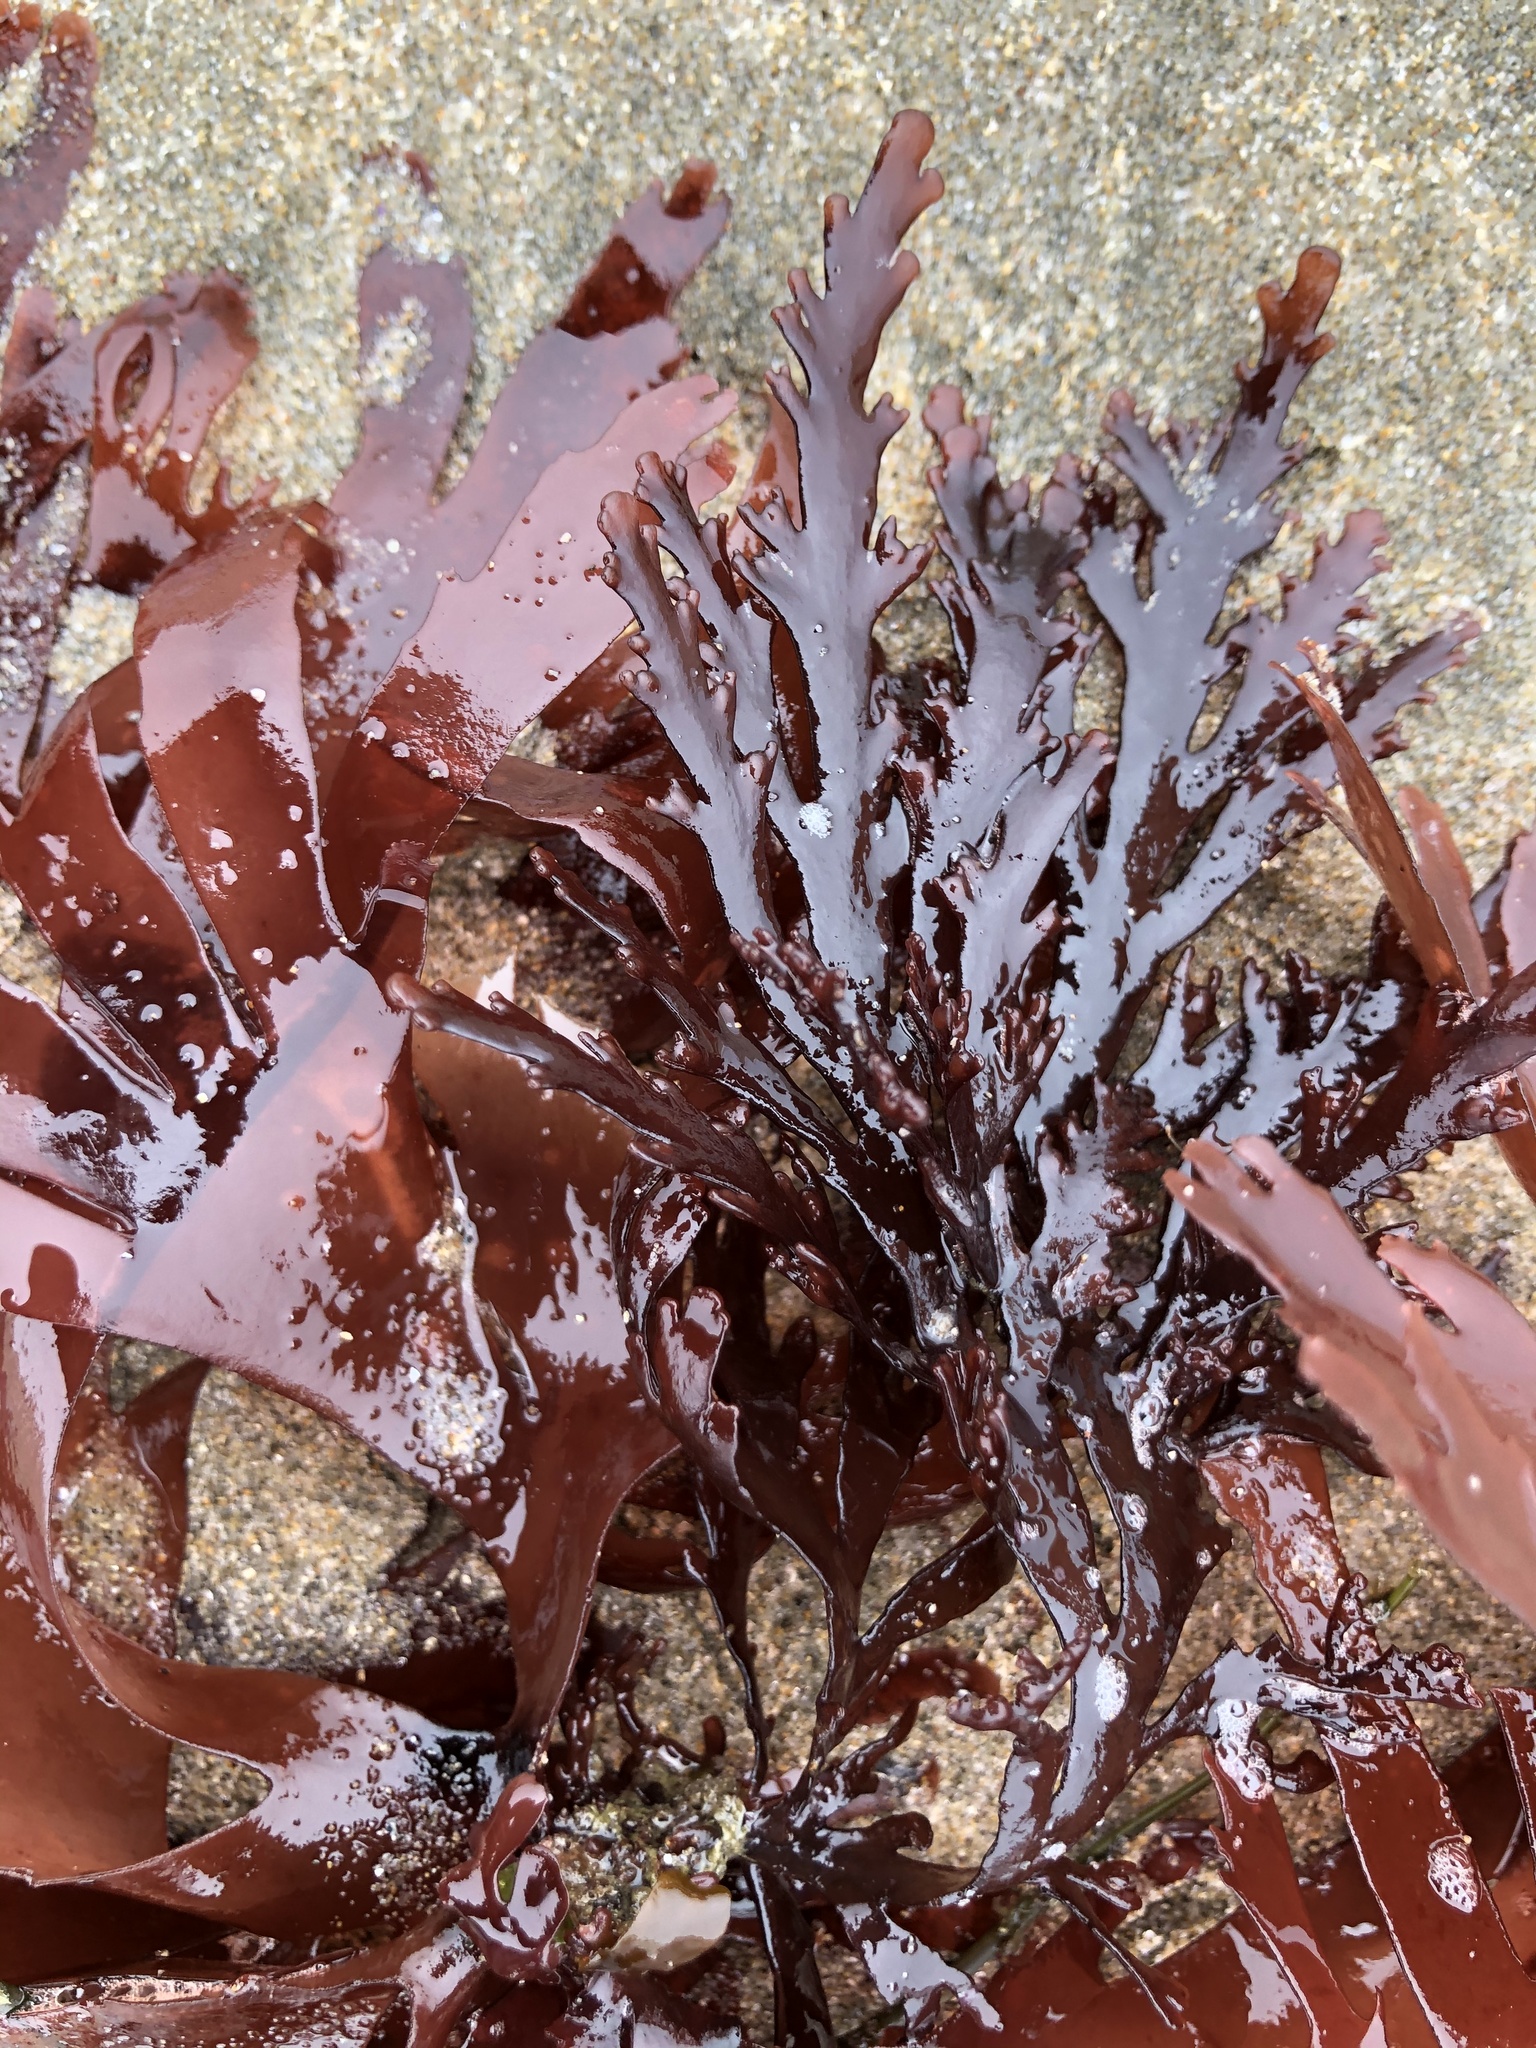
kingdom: Plantae
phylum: Rhodophyta
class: Florideophyceae
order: Ceramiales
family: Rhodomelaceae
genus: Osmundea
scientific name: Osmundea spectabilis
